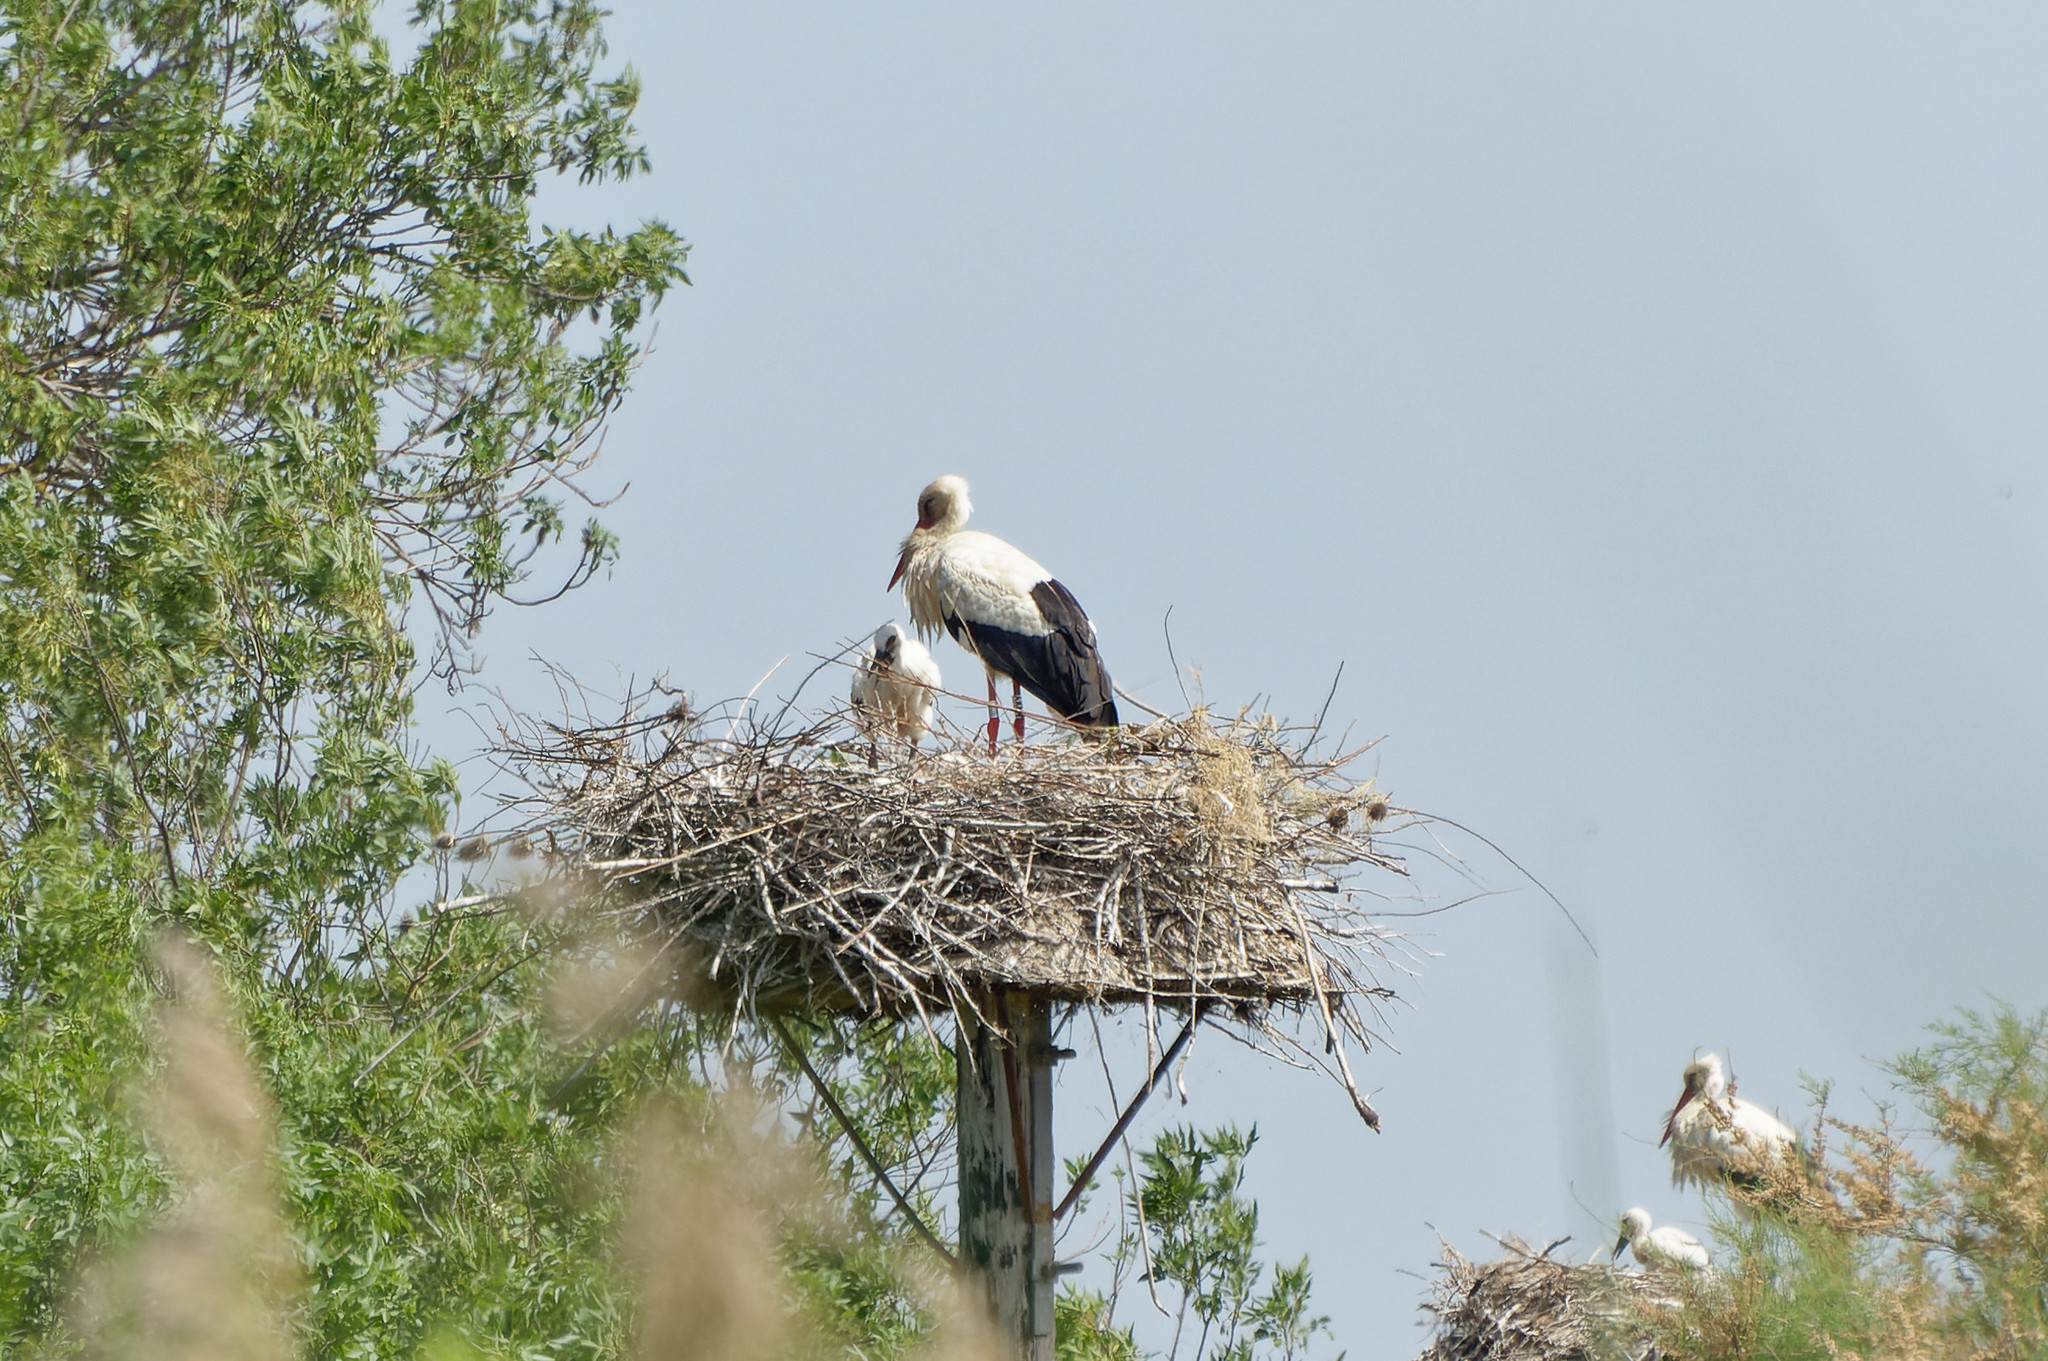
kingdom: Animalia
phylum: Chordata
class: Aves
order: Ciconiiformes
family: Ciconiidae
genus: Ciconia
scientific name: Ciconia ciconia
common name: White stork
